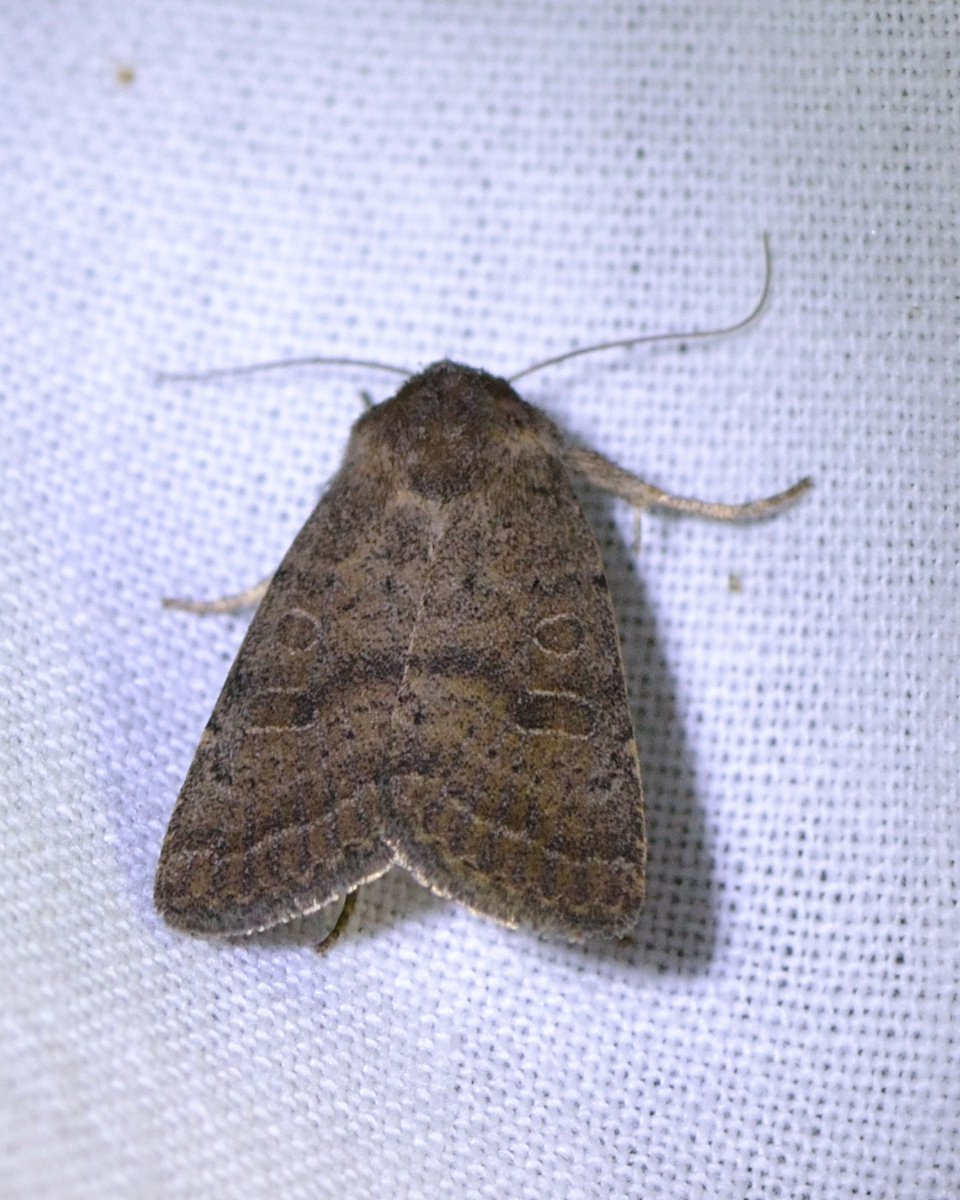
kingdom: Animalia
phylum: Arthropoda
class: Insecta
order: Lepidoptera
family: Noctuidae
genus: Hoplodrina
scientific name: Hoplodrina blanda
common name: Rustic
